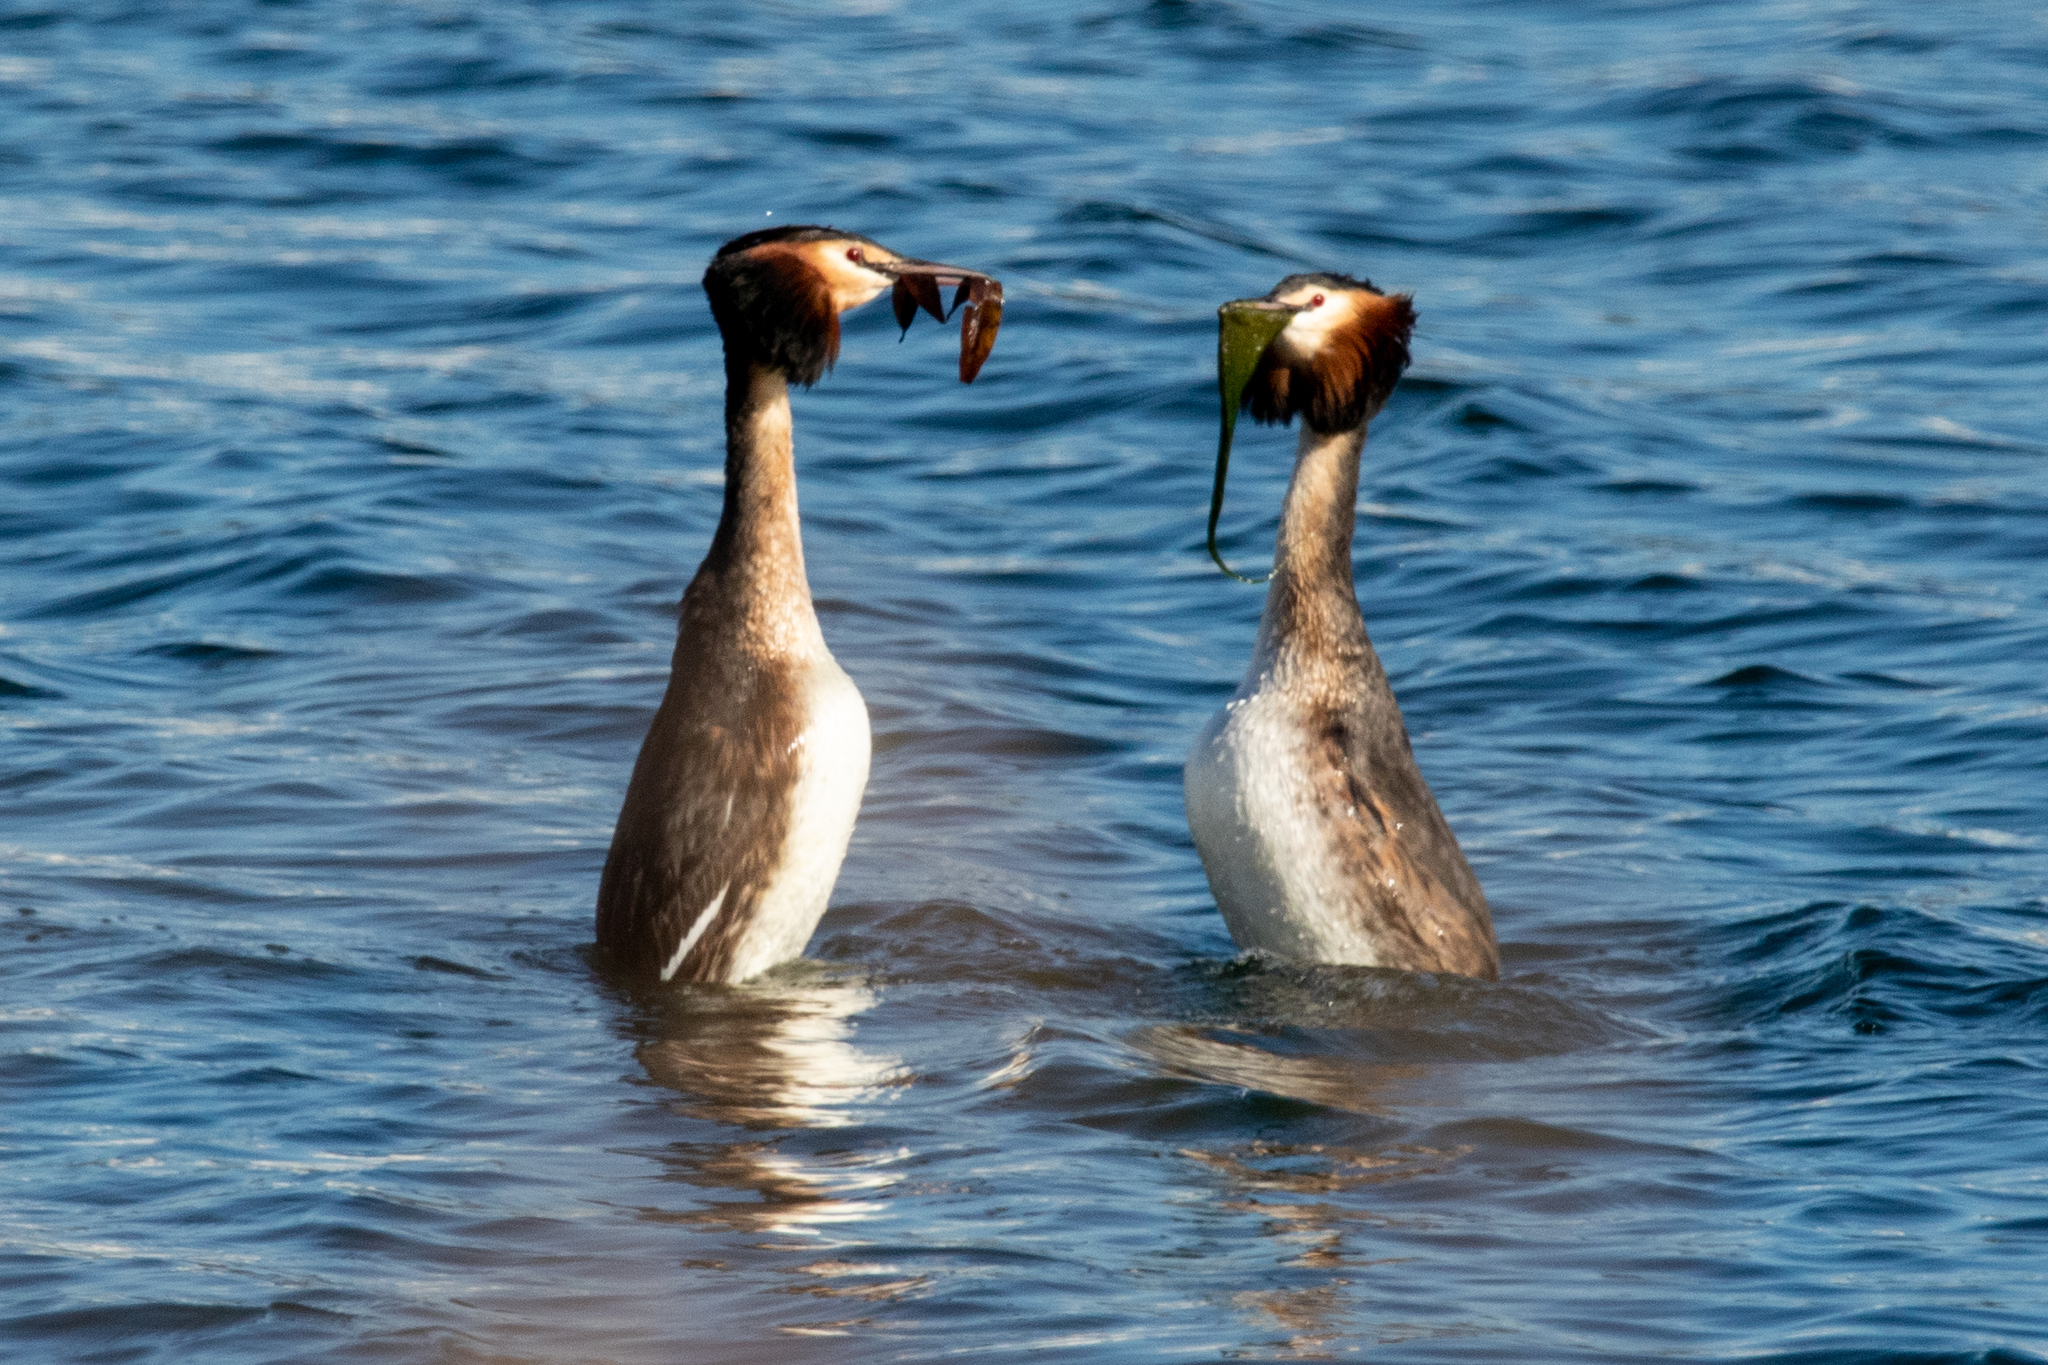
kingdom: Animalia
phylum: Chordata
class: Aves
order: Podicipediformes
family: Podicipedidae
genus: Podiceps
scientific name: Podiceps cristatus
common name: Great crested grebe
